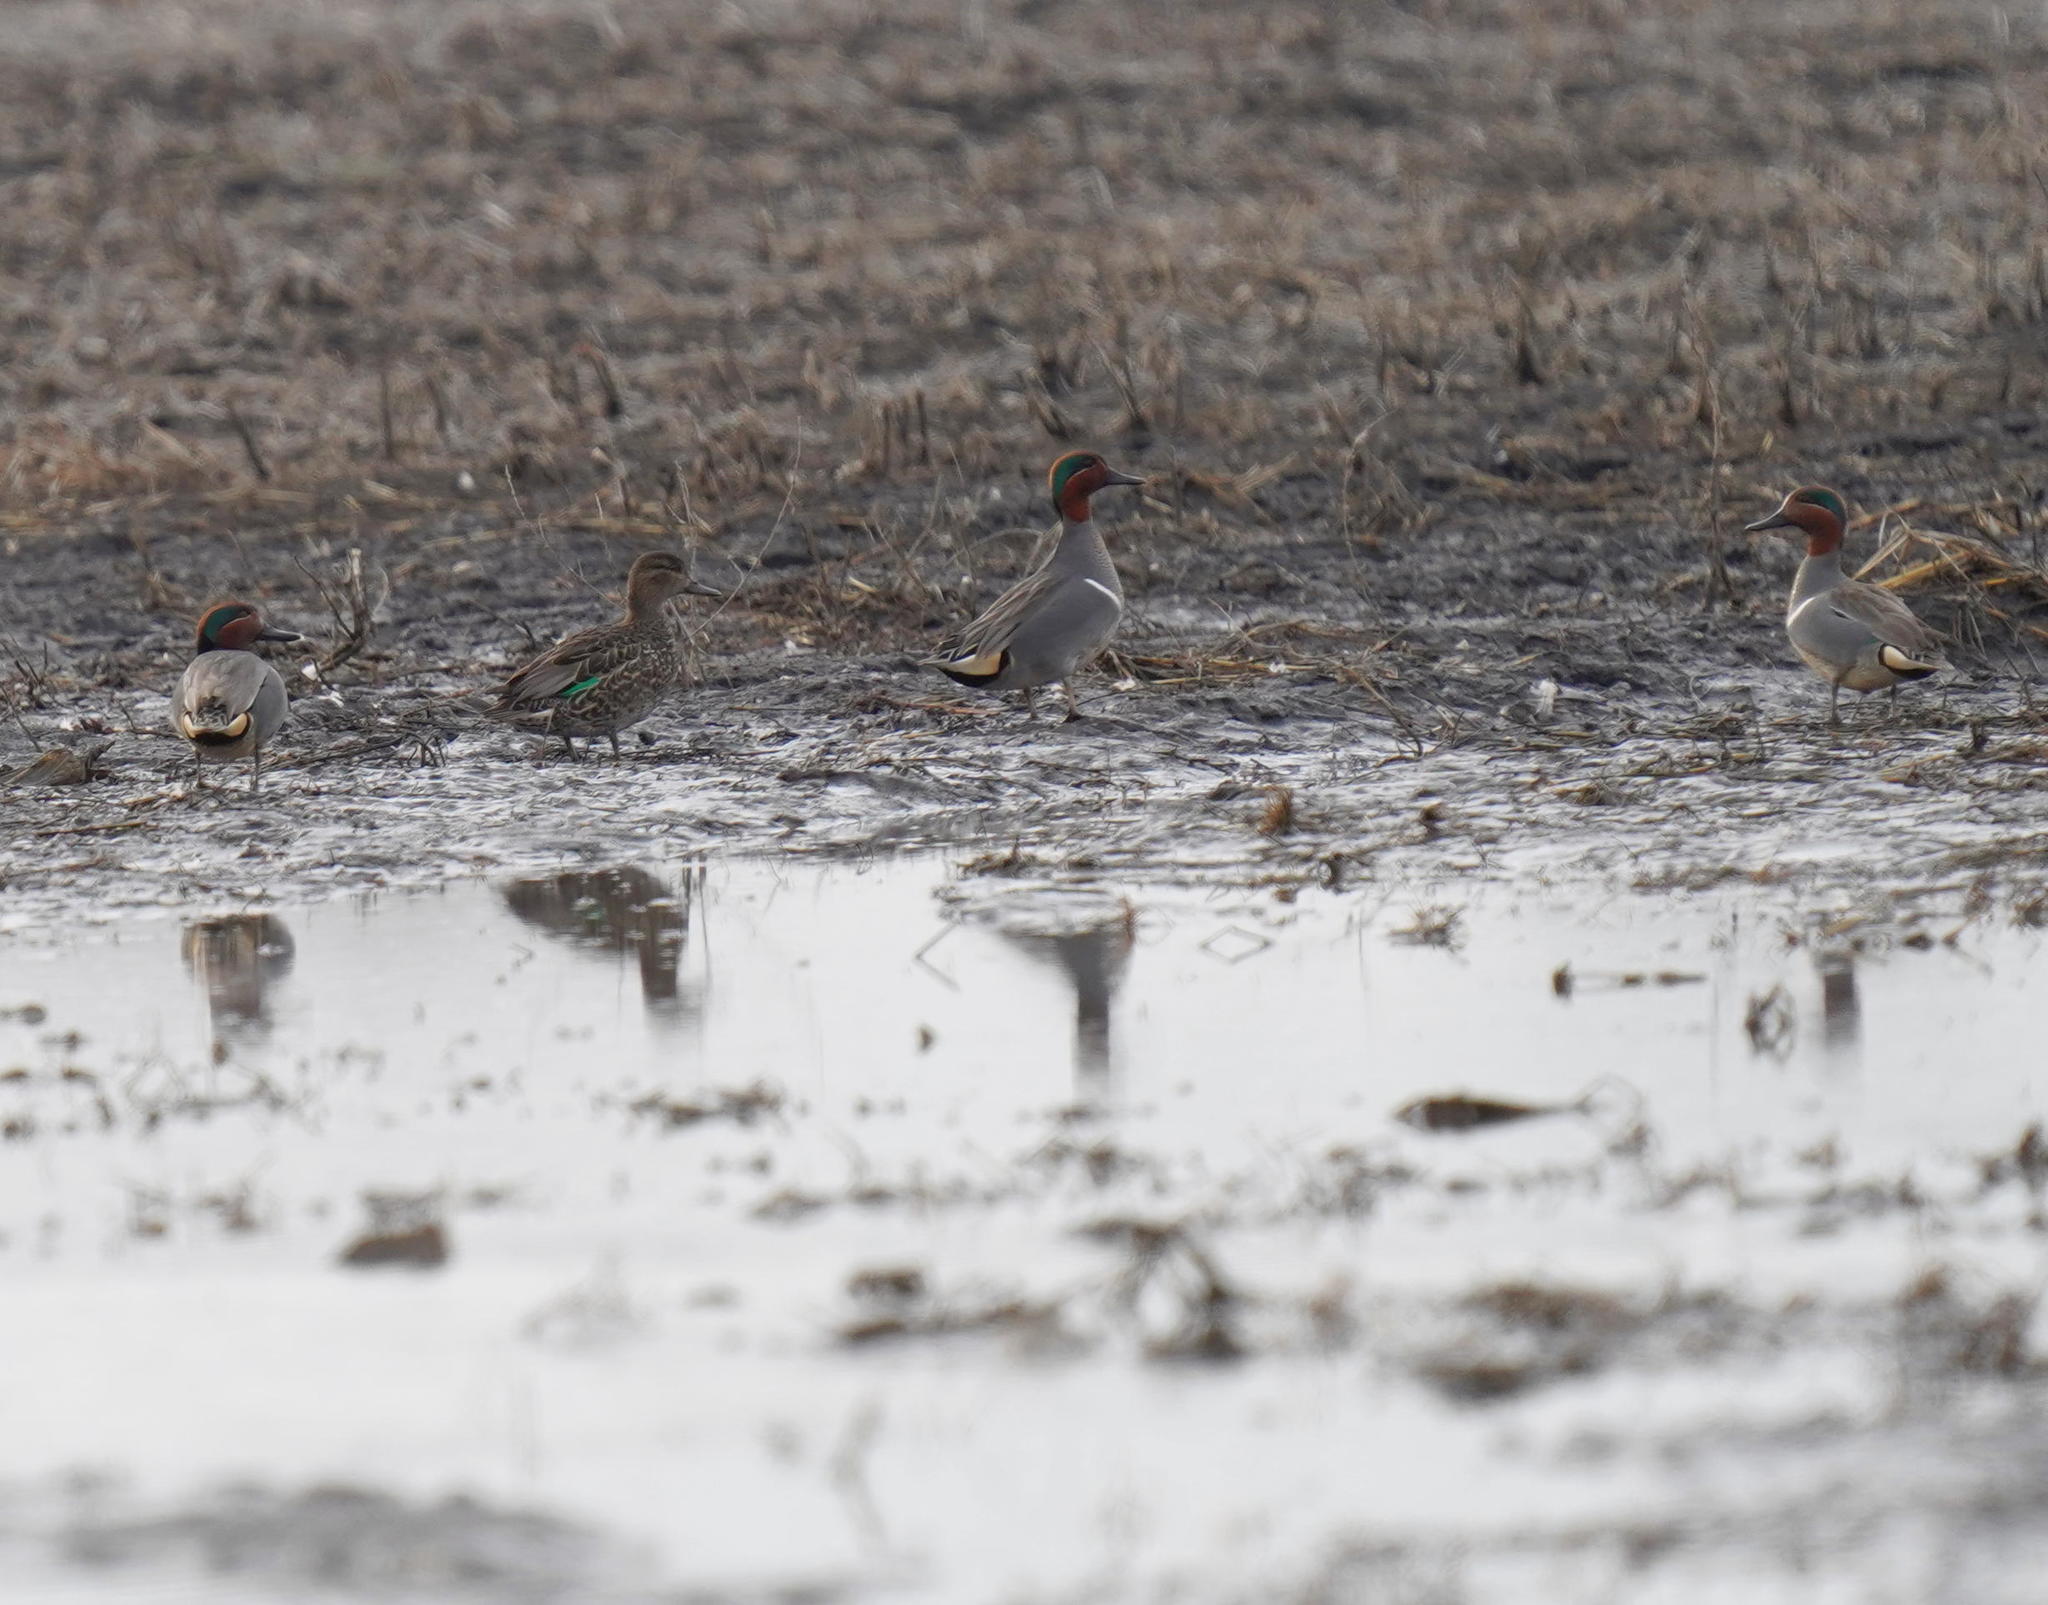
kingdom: Animalia
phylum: Chordata
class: Aves
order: Anseriformes
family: Anatidae
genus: Anas
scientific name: Anas crecca
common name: Eurasian teal
